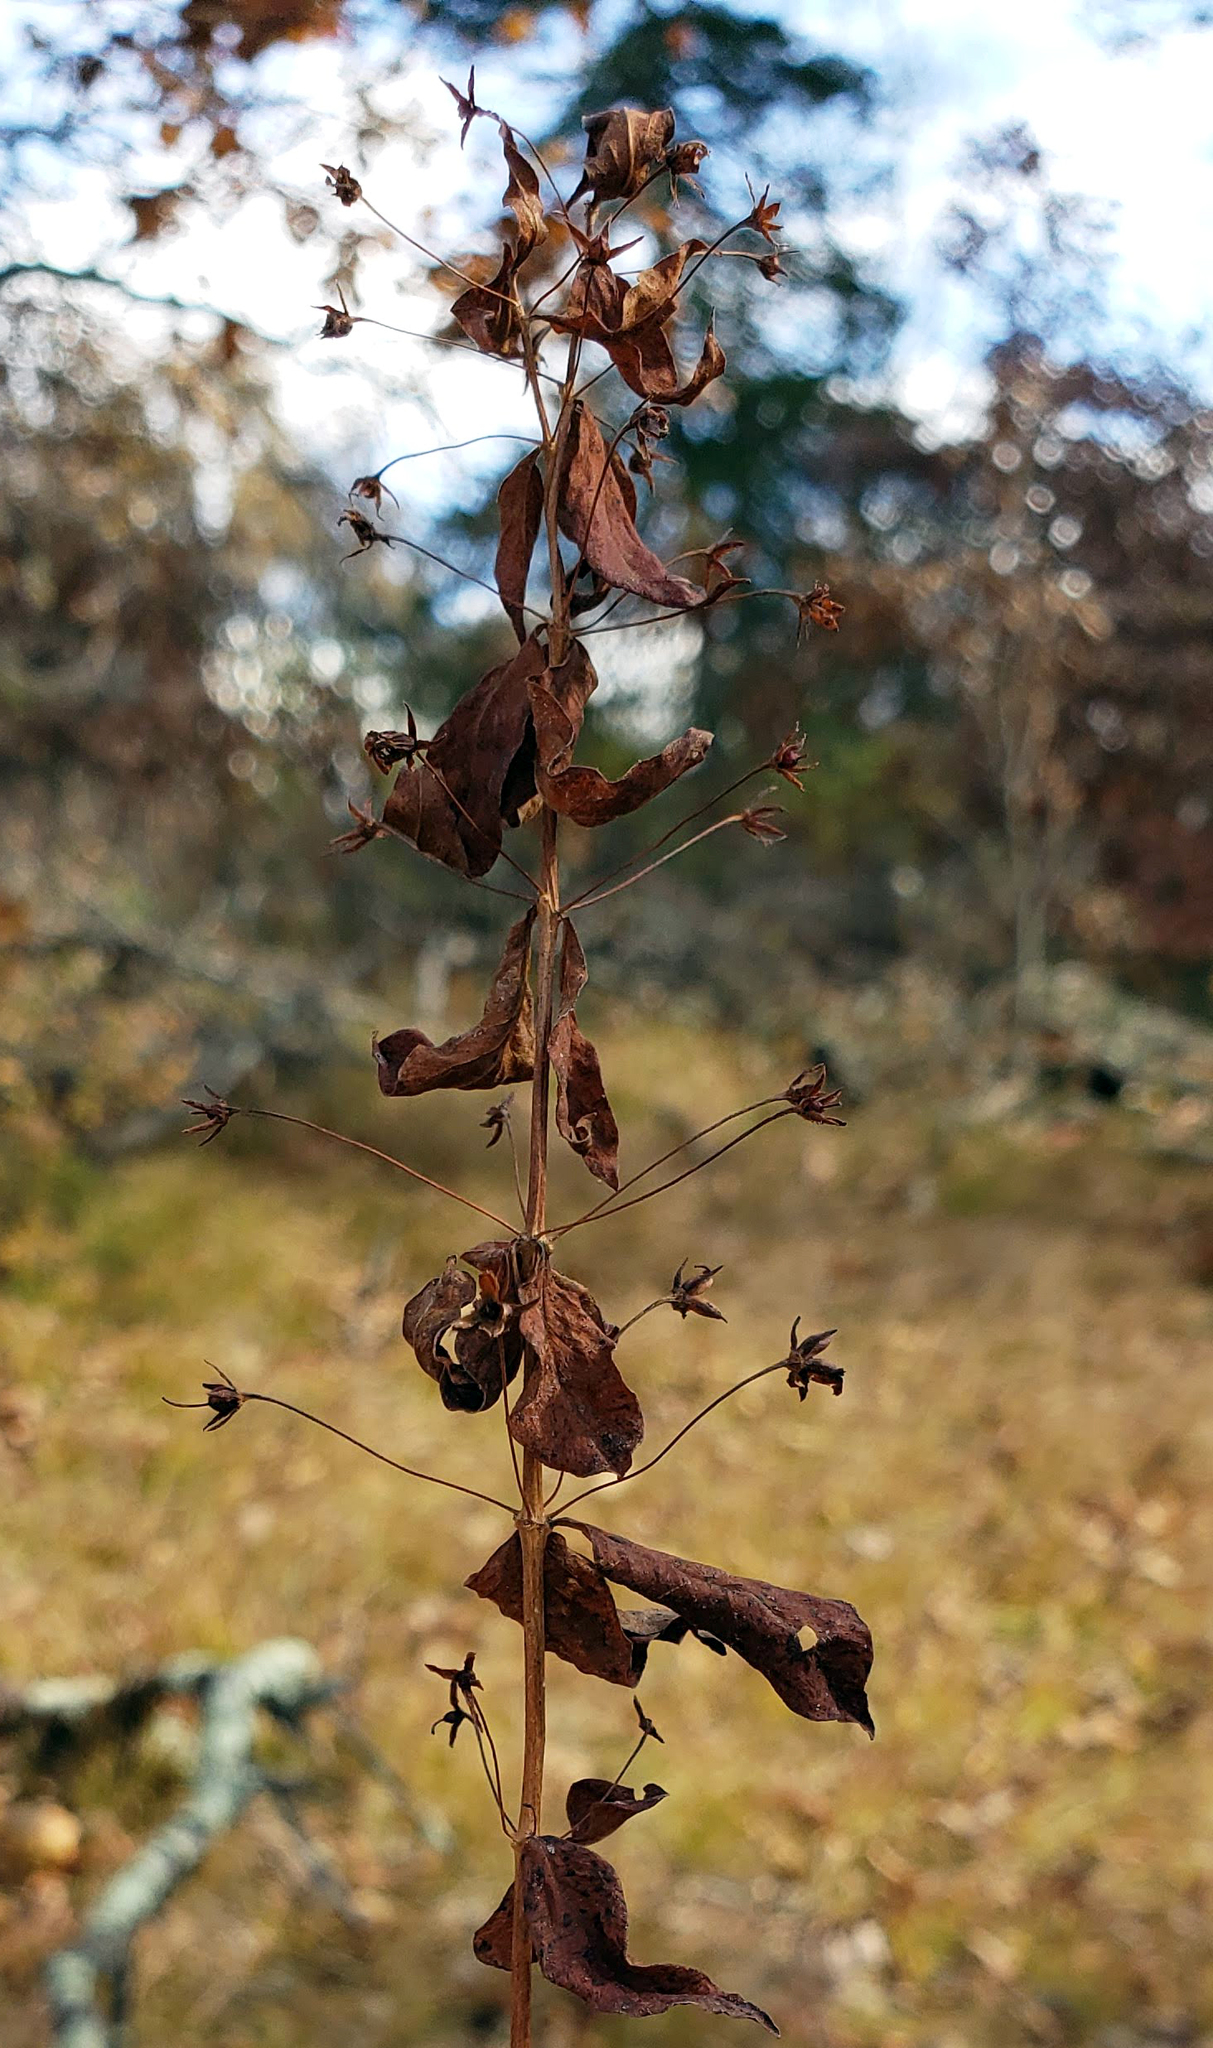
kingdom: Plantae
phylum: Tracheophyta
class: Magnoliopsida
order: Ericales
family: Primulaceae
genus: Lysimachia
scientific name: Lysimachia quadrifolia
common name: Whorled loosestrife
